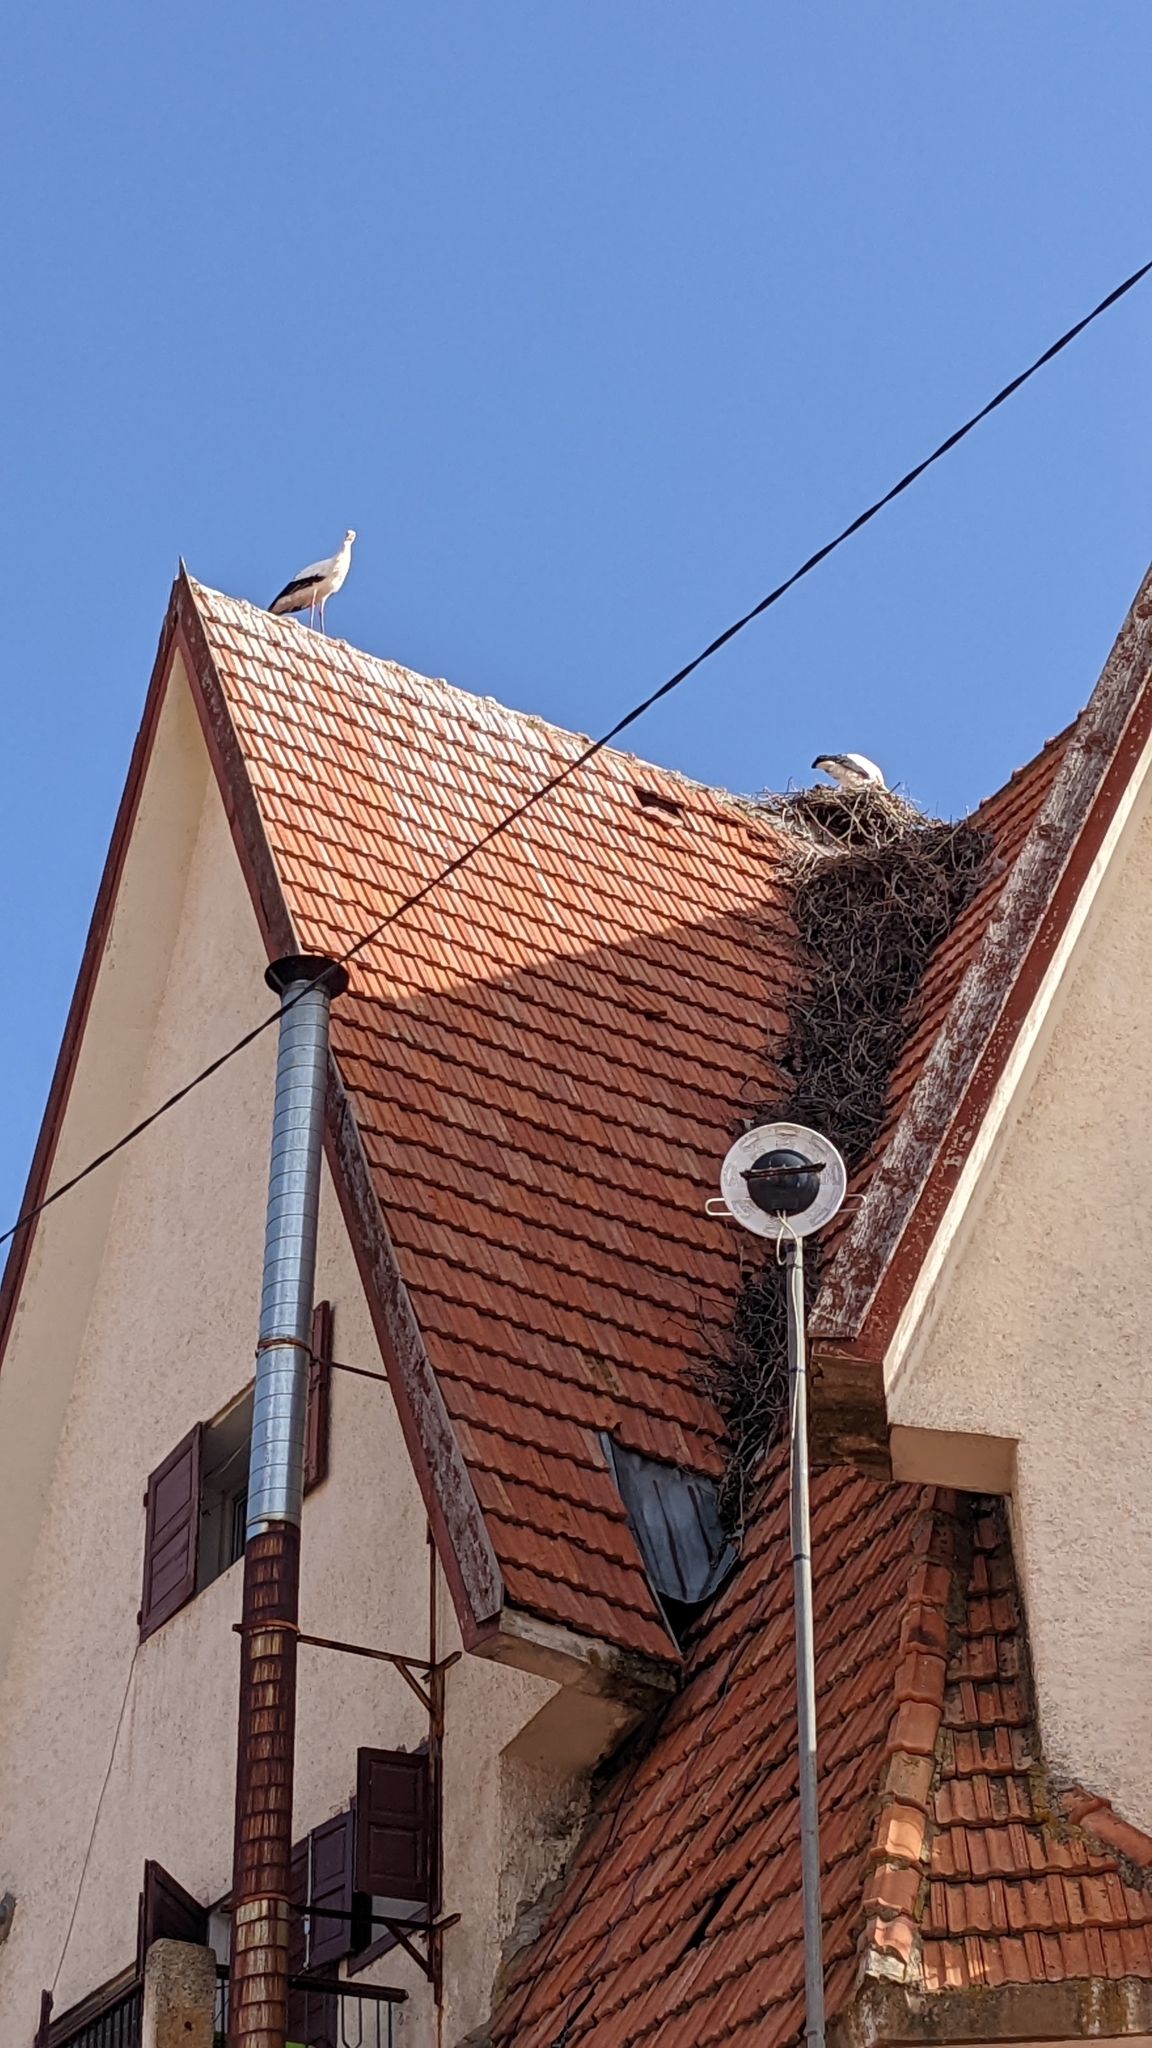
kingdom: Animalia
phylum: Chordata
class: Aves
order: Ciconiiformes
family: Ciconiidae
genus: Ciconia
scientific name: Ciconia ciconia
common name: White stork
